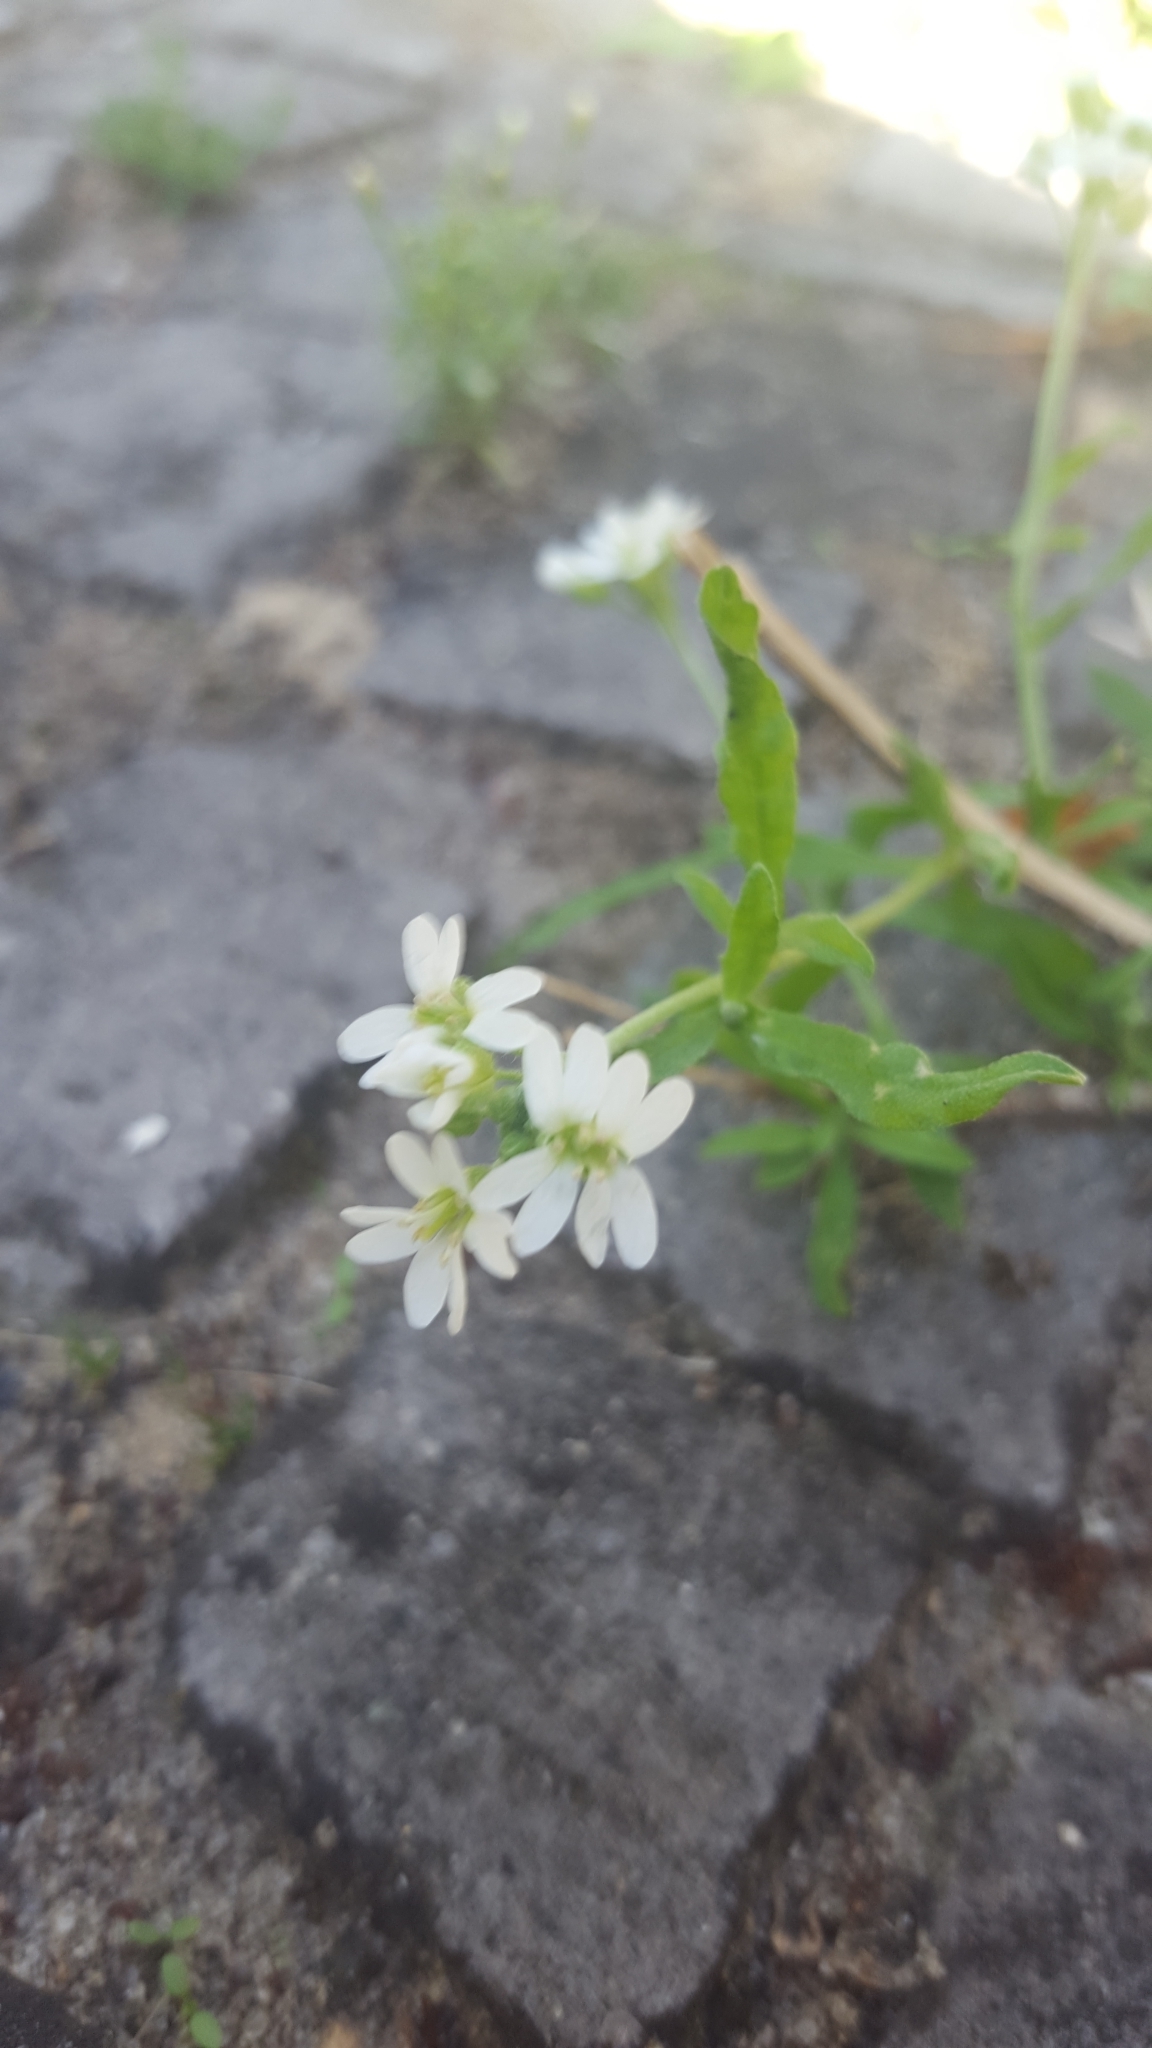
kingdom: Plantae
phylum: Tracheophyta
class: Magnoliopsida
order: Brassicales
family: Brassicaceae
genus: Berteroa
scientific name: Berteroa incana
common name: Hoary alison
